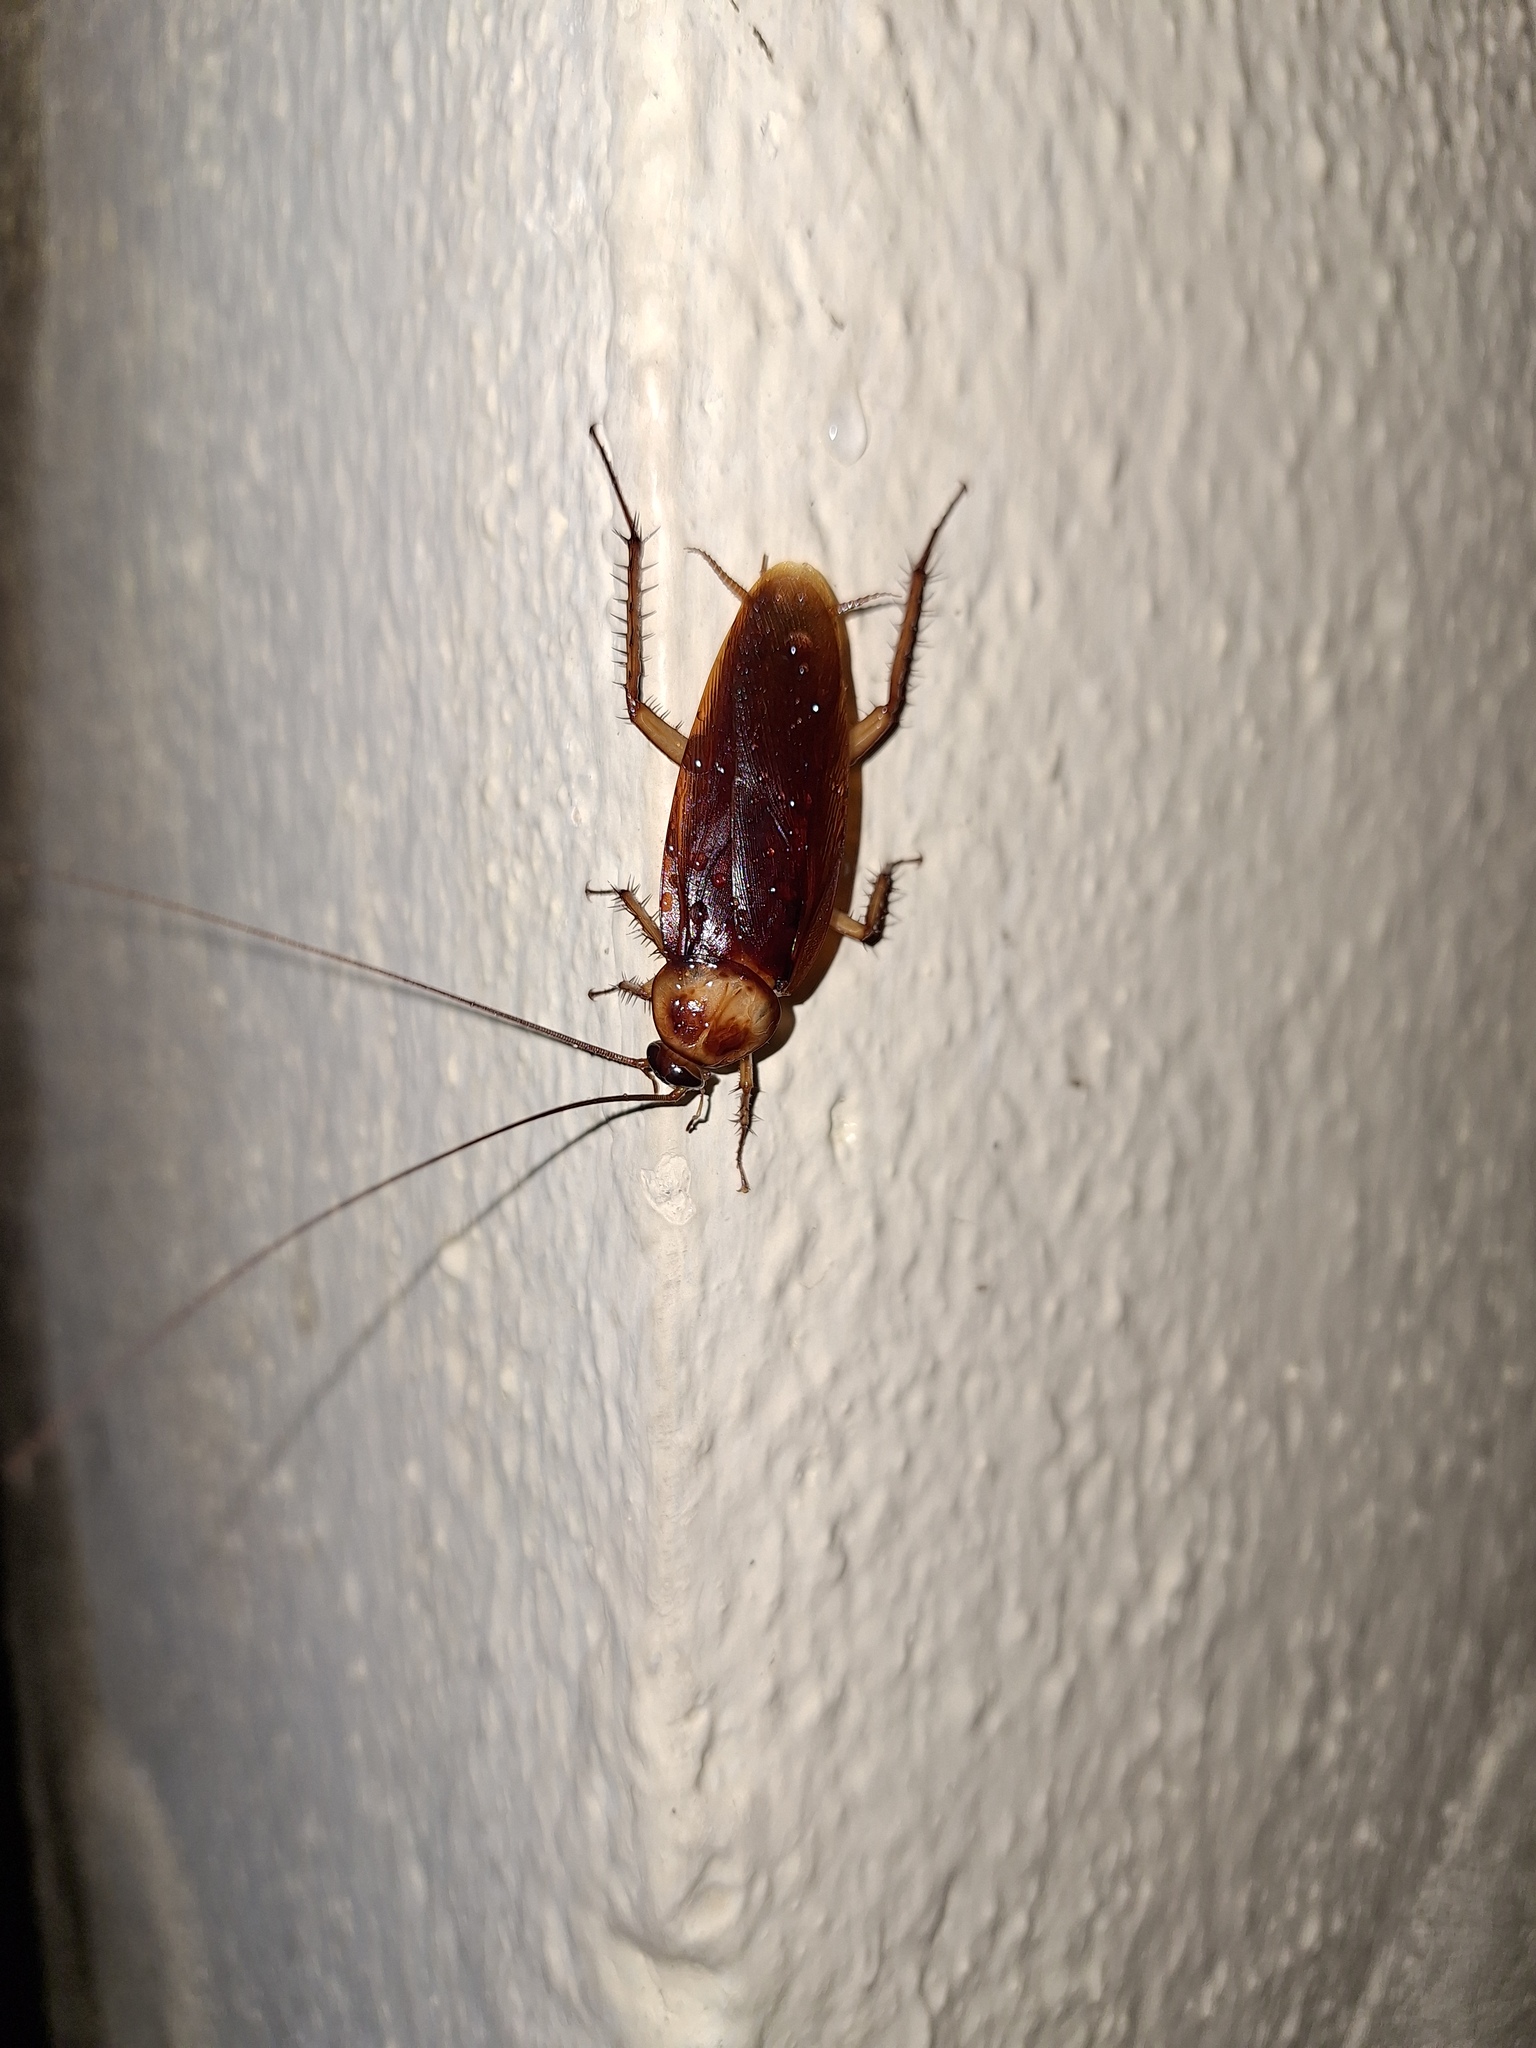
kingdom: Animalia
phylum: Arthropoda
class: Insecta
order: Blattodea
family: Blattidae
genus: Periplaneta
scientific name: Periplaneta americana
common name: American cockroach
